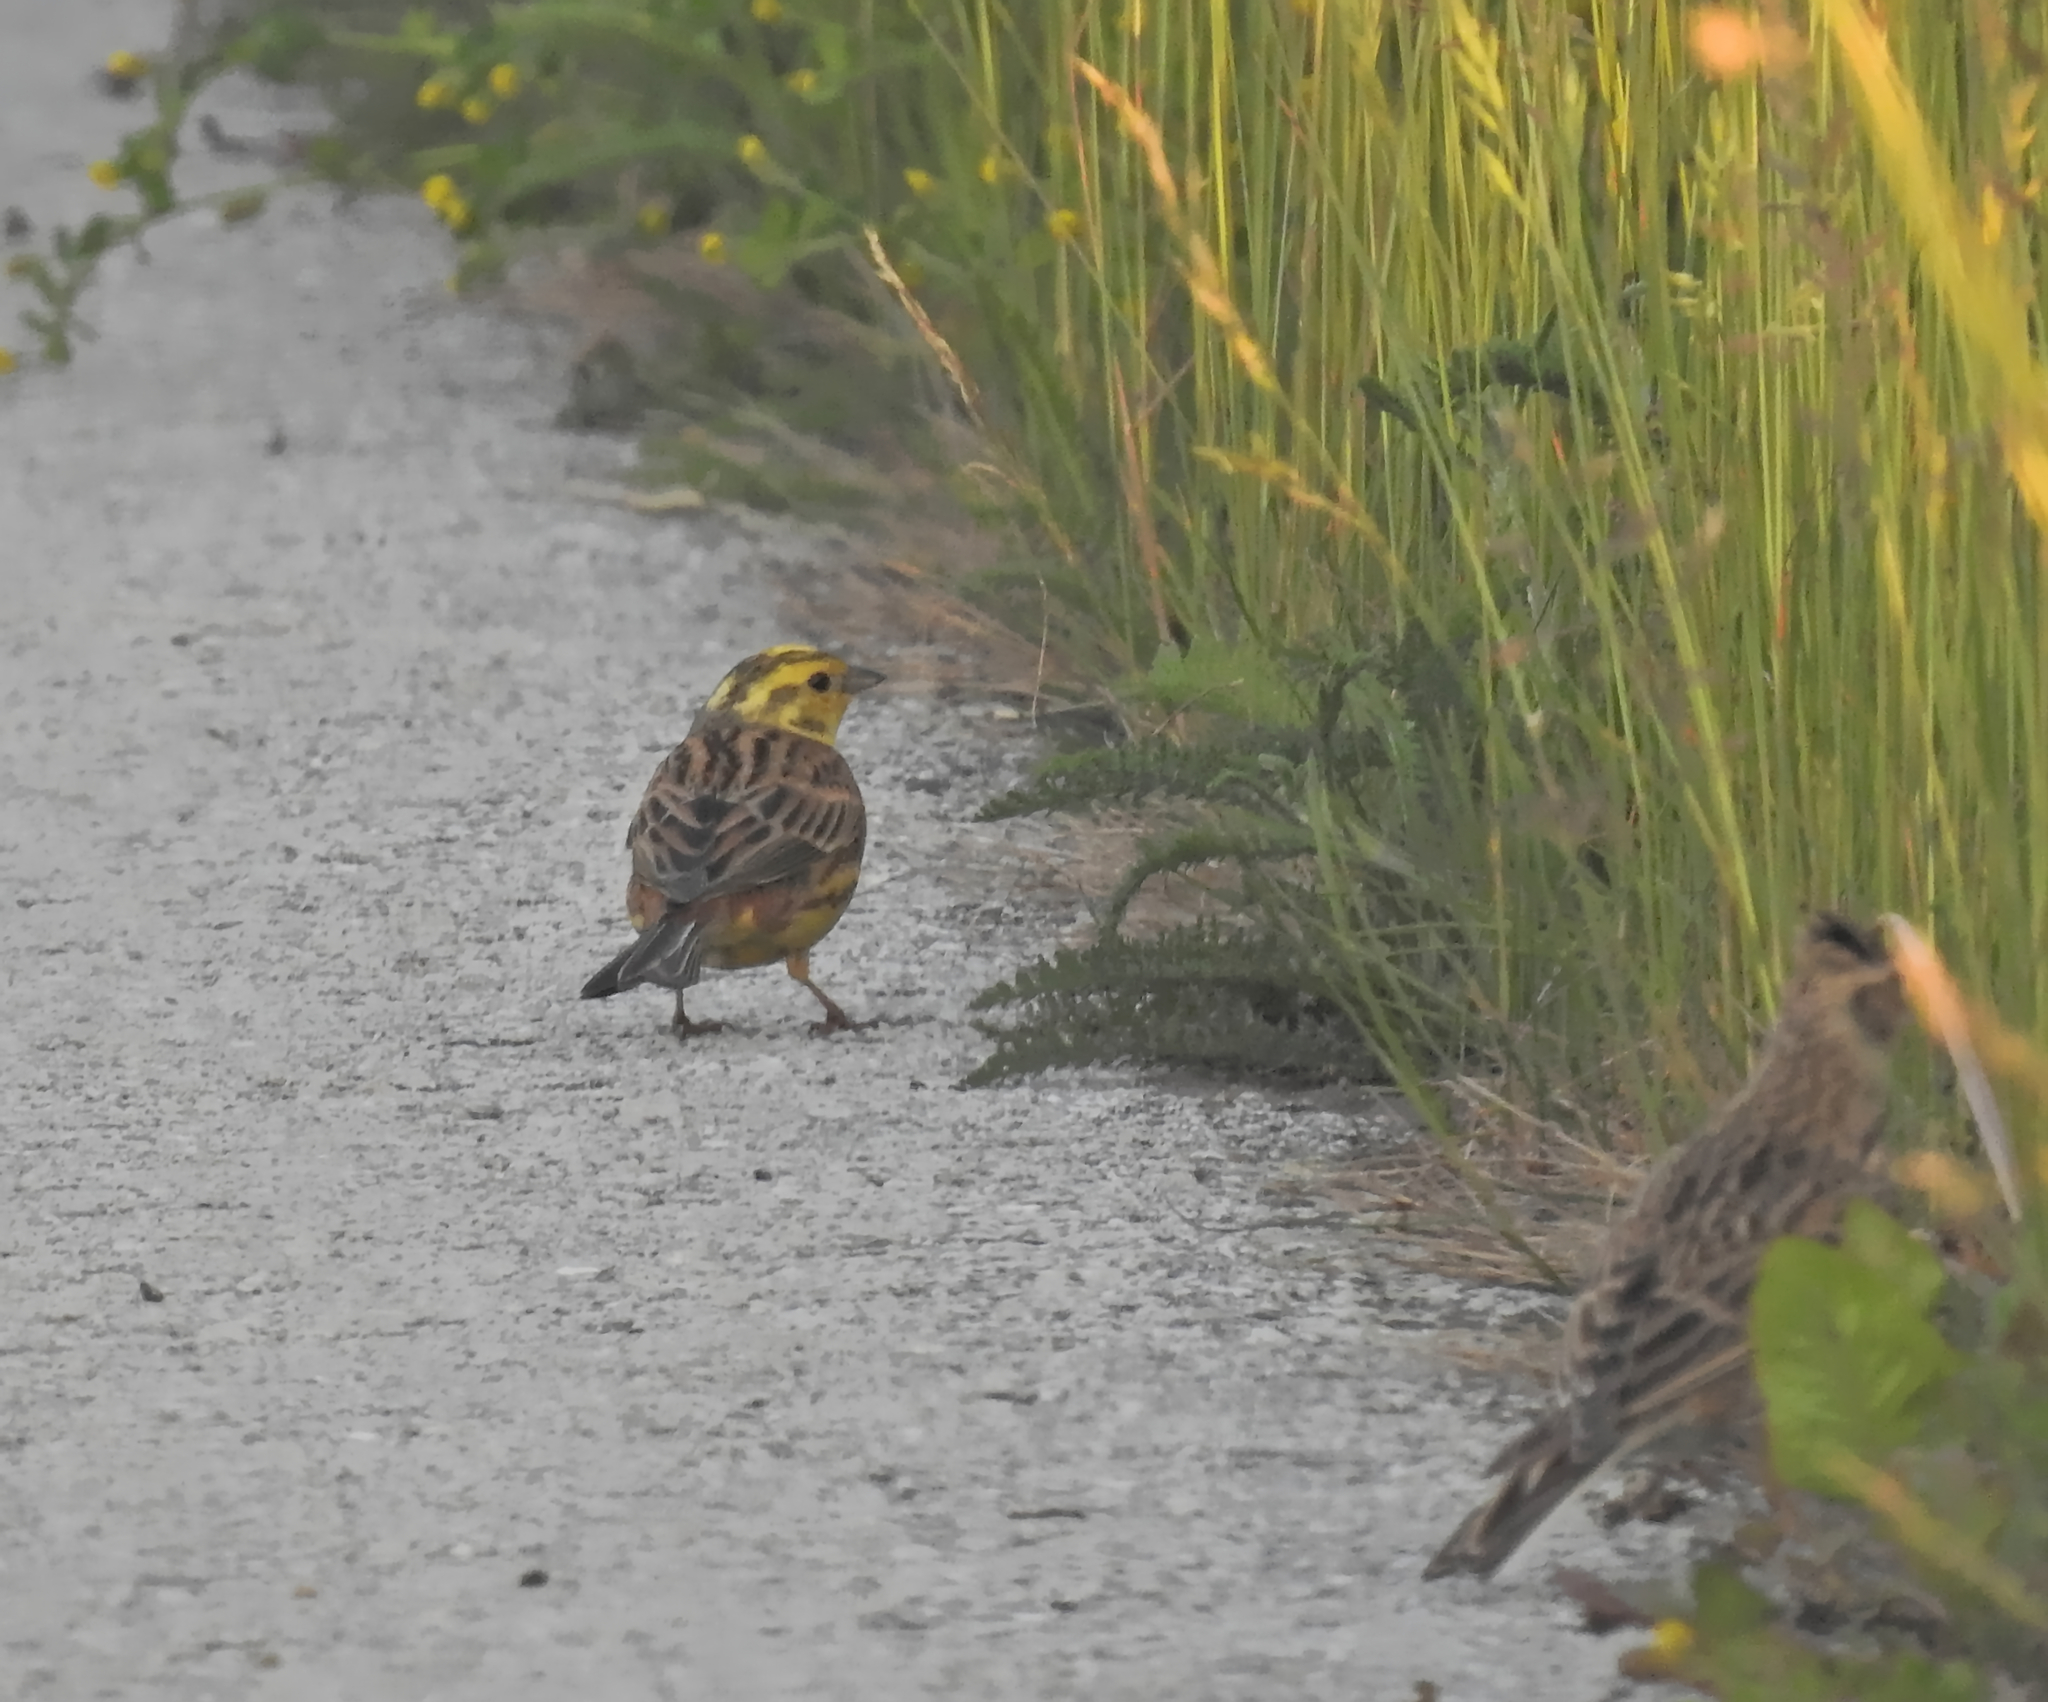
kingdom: Animalia
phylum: Chordata
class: Aves
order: Passeriformes
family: Emberizidae
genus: Emberiza
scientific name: Emberiza citrinella
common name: Yellowhammer
